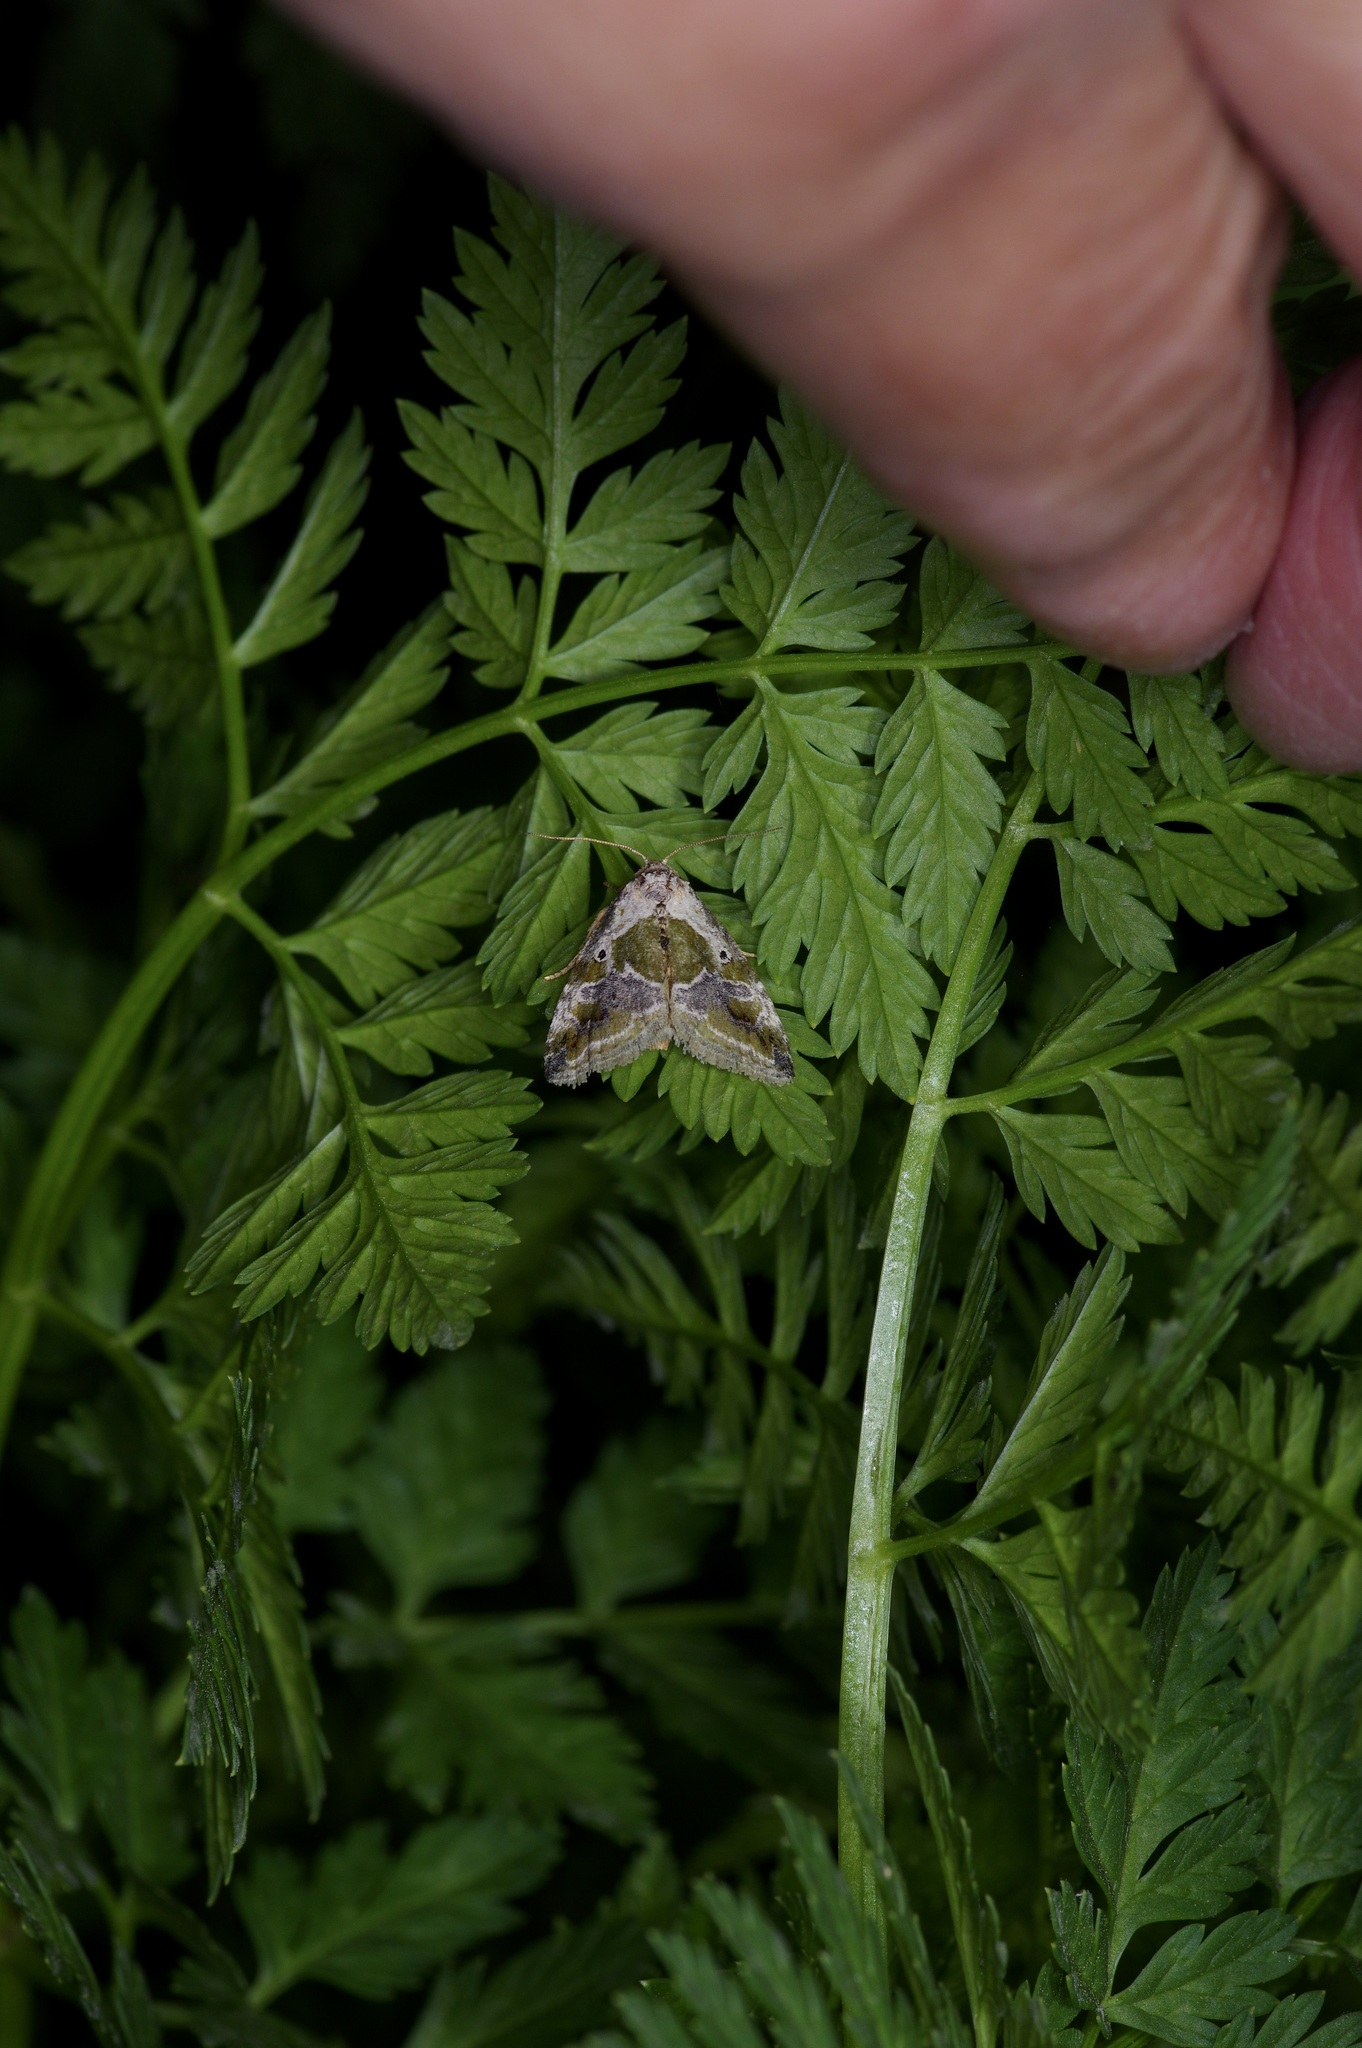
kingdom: Animalia
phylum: Arthropoda
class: Insecta
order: Lepidoptera
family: Noctuidae
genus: Maliattha
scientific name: Maliattha synochitis
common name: Black-dotted glyph
